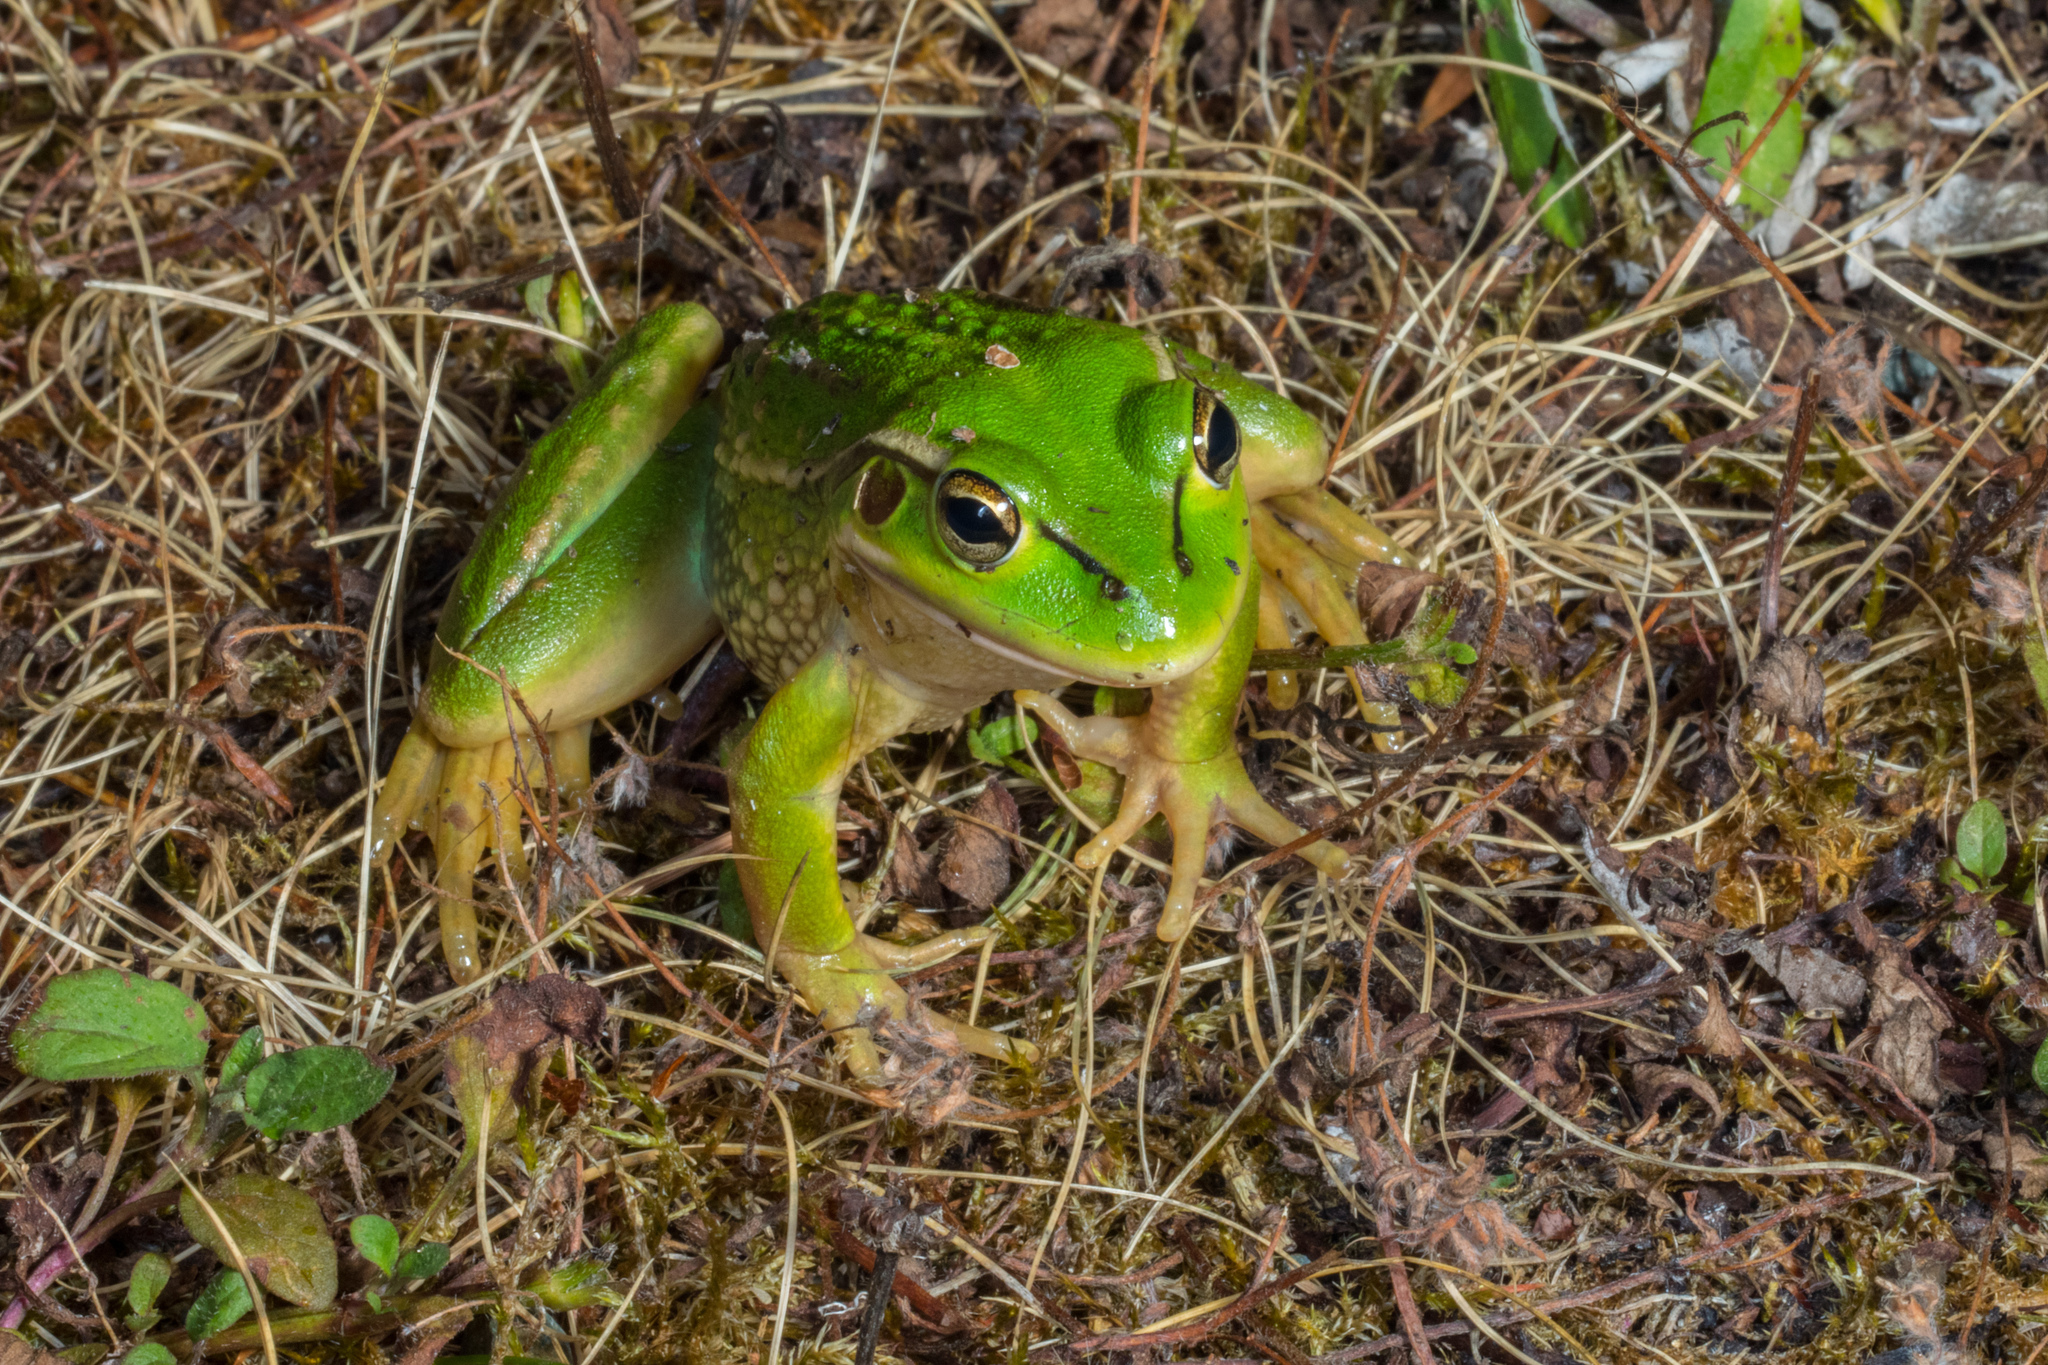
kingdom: Animalia
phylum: Chordata
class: Amphibia
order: Anura
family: Pelodryadidae
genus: Ranoidea
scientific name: Ranoidea raniformis
